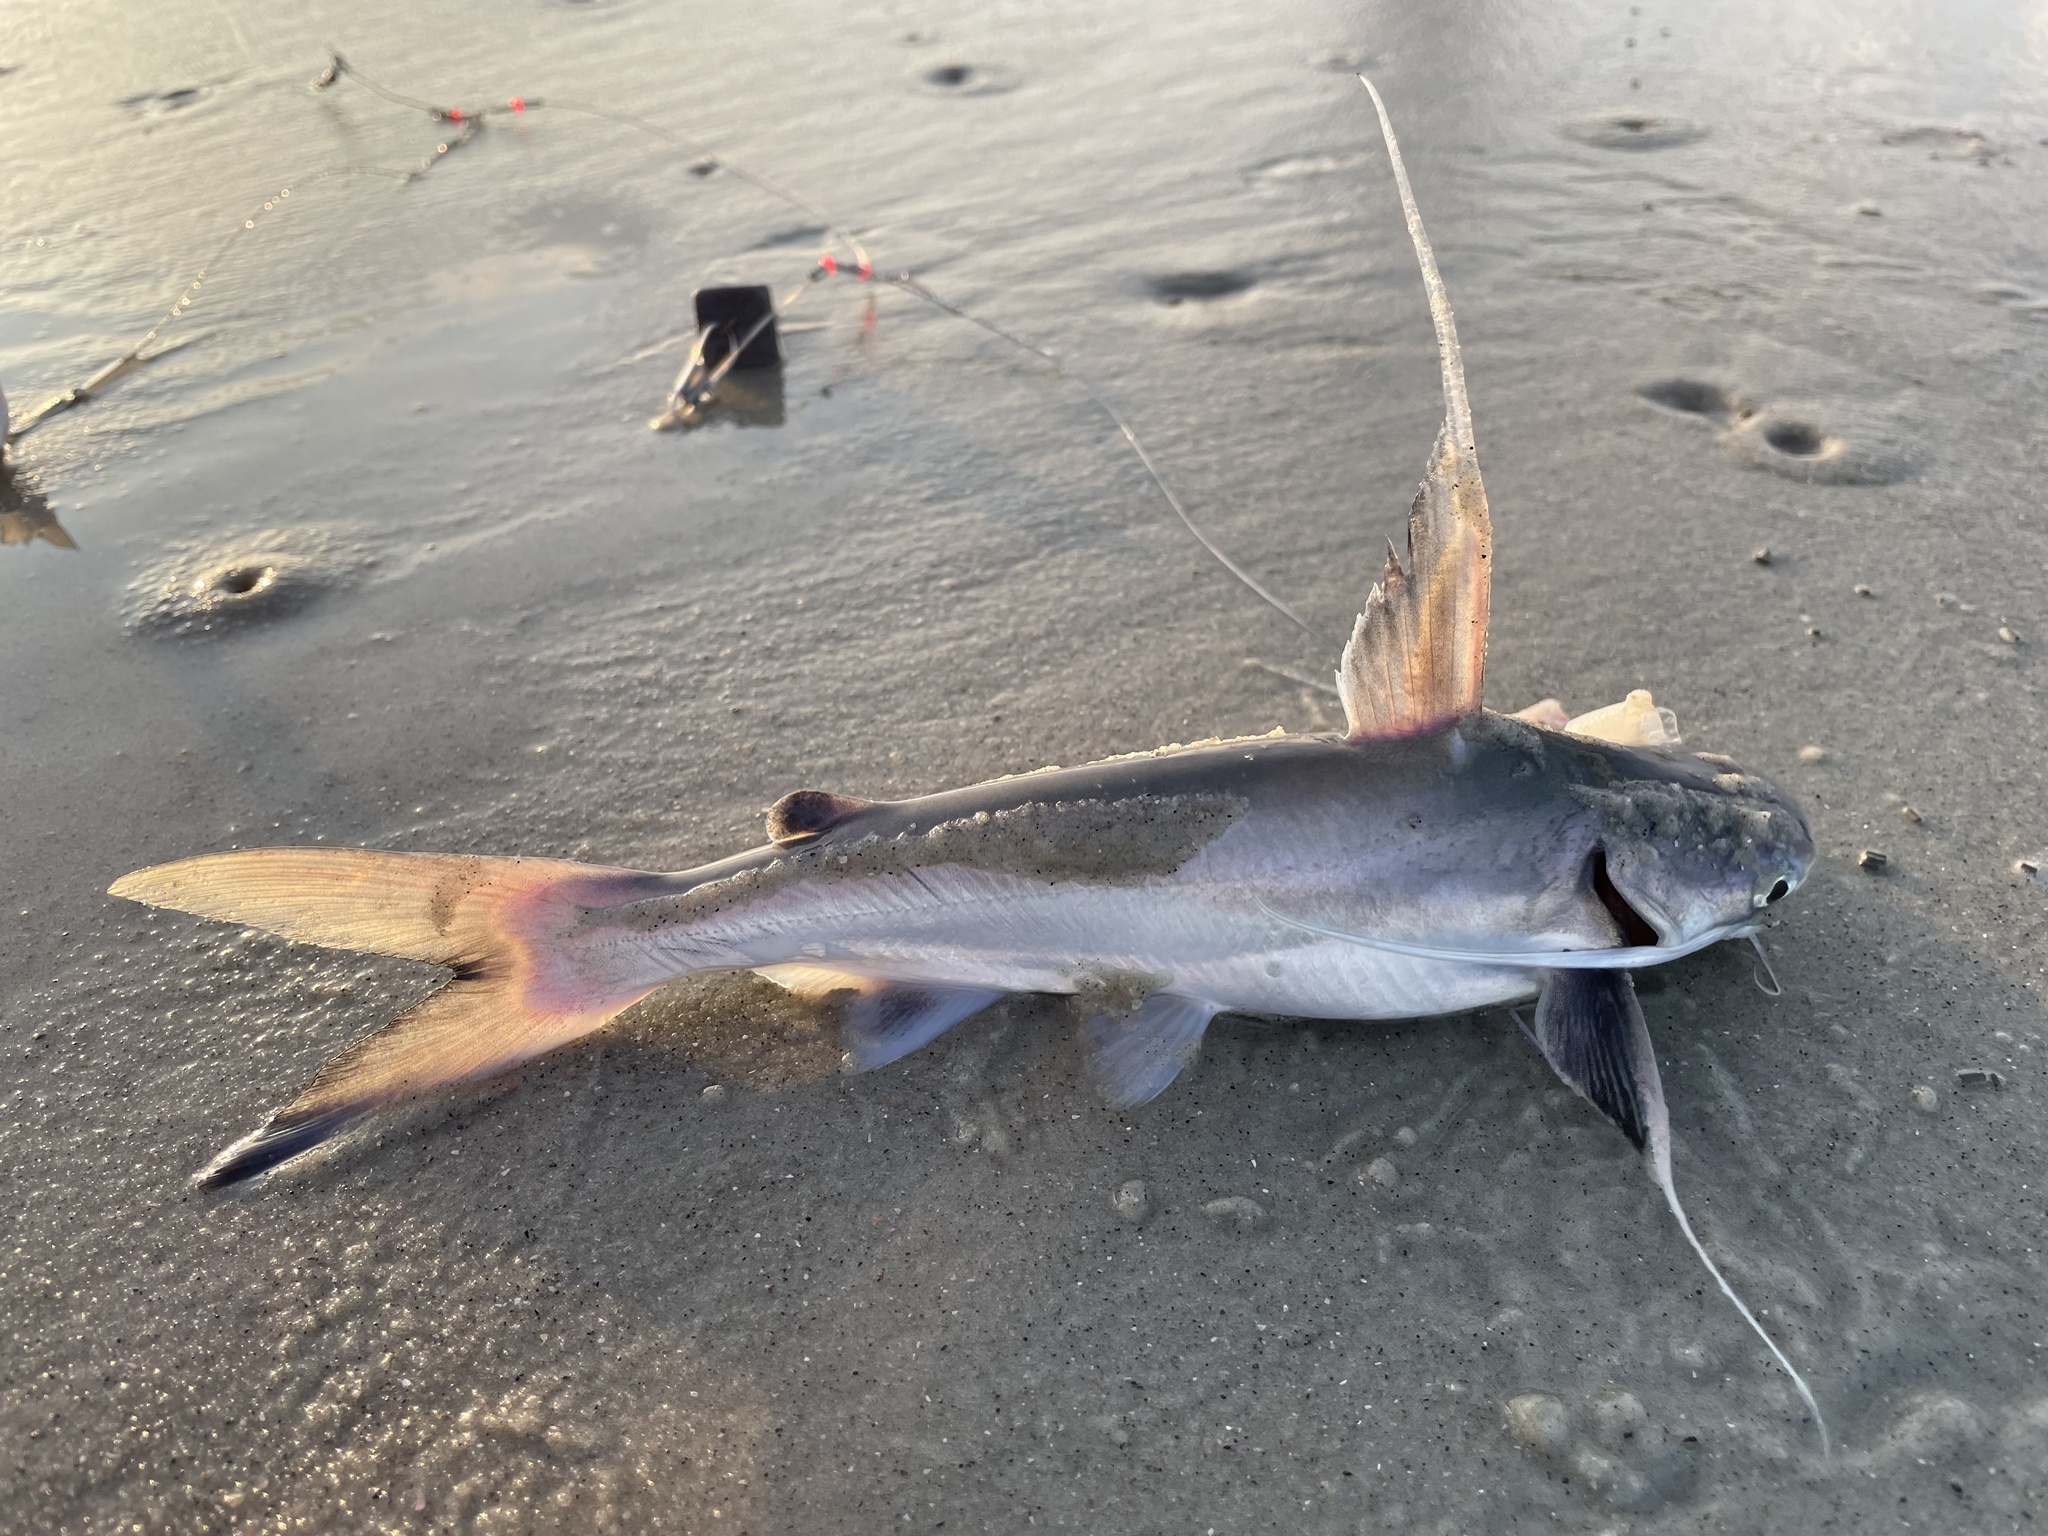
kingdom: Animalia
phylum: Chordata
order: Siluriformes
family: Ariidae
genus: Bagre
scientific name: Bagre marinus
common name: Gafftopsail sea catfish
